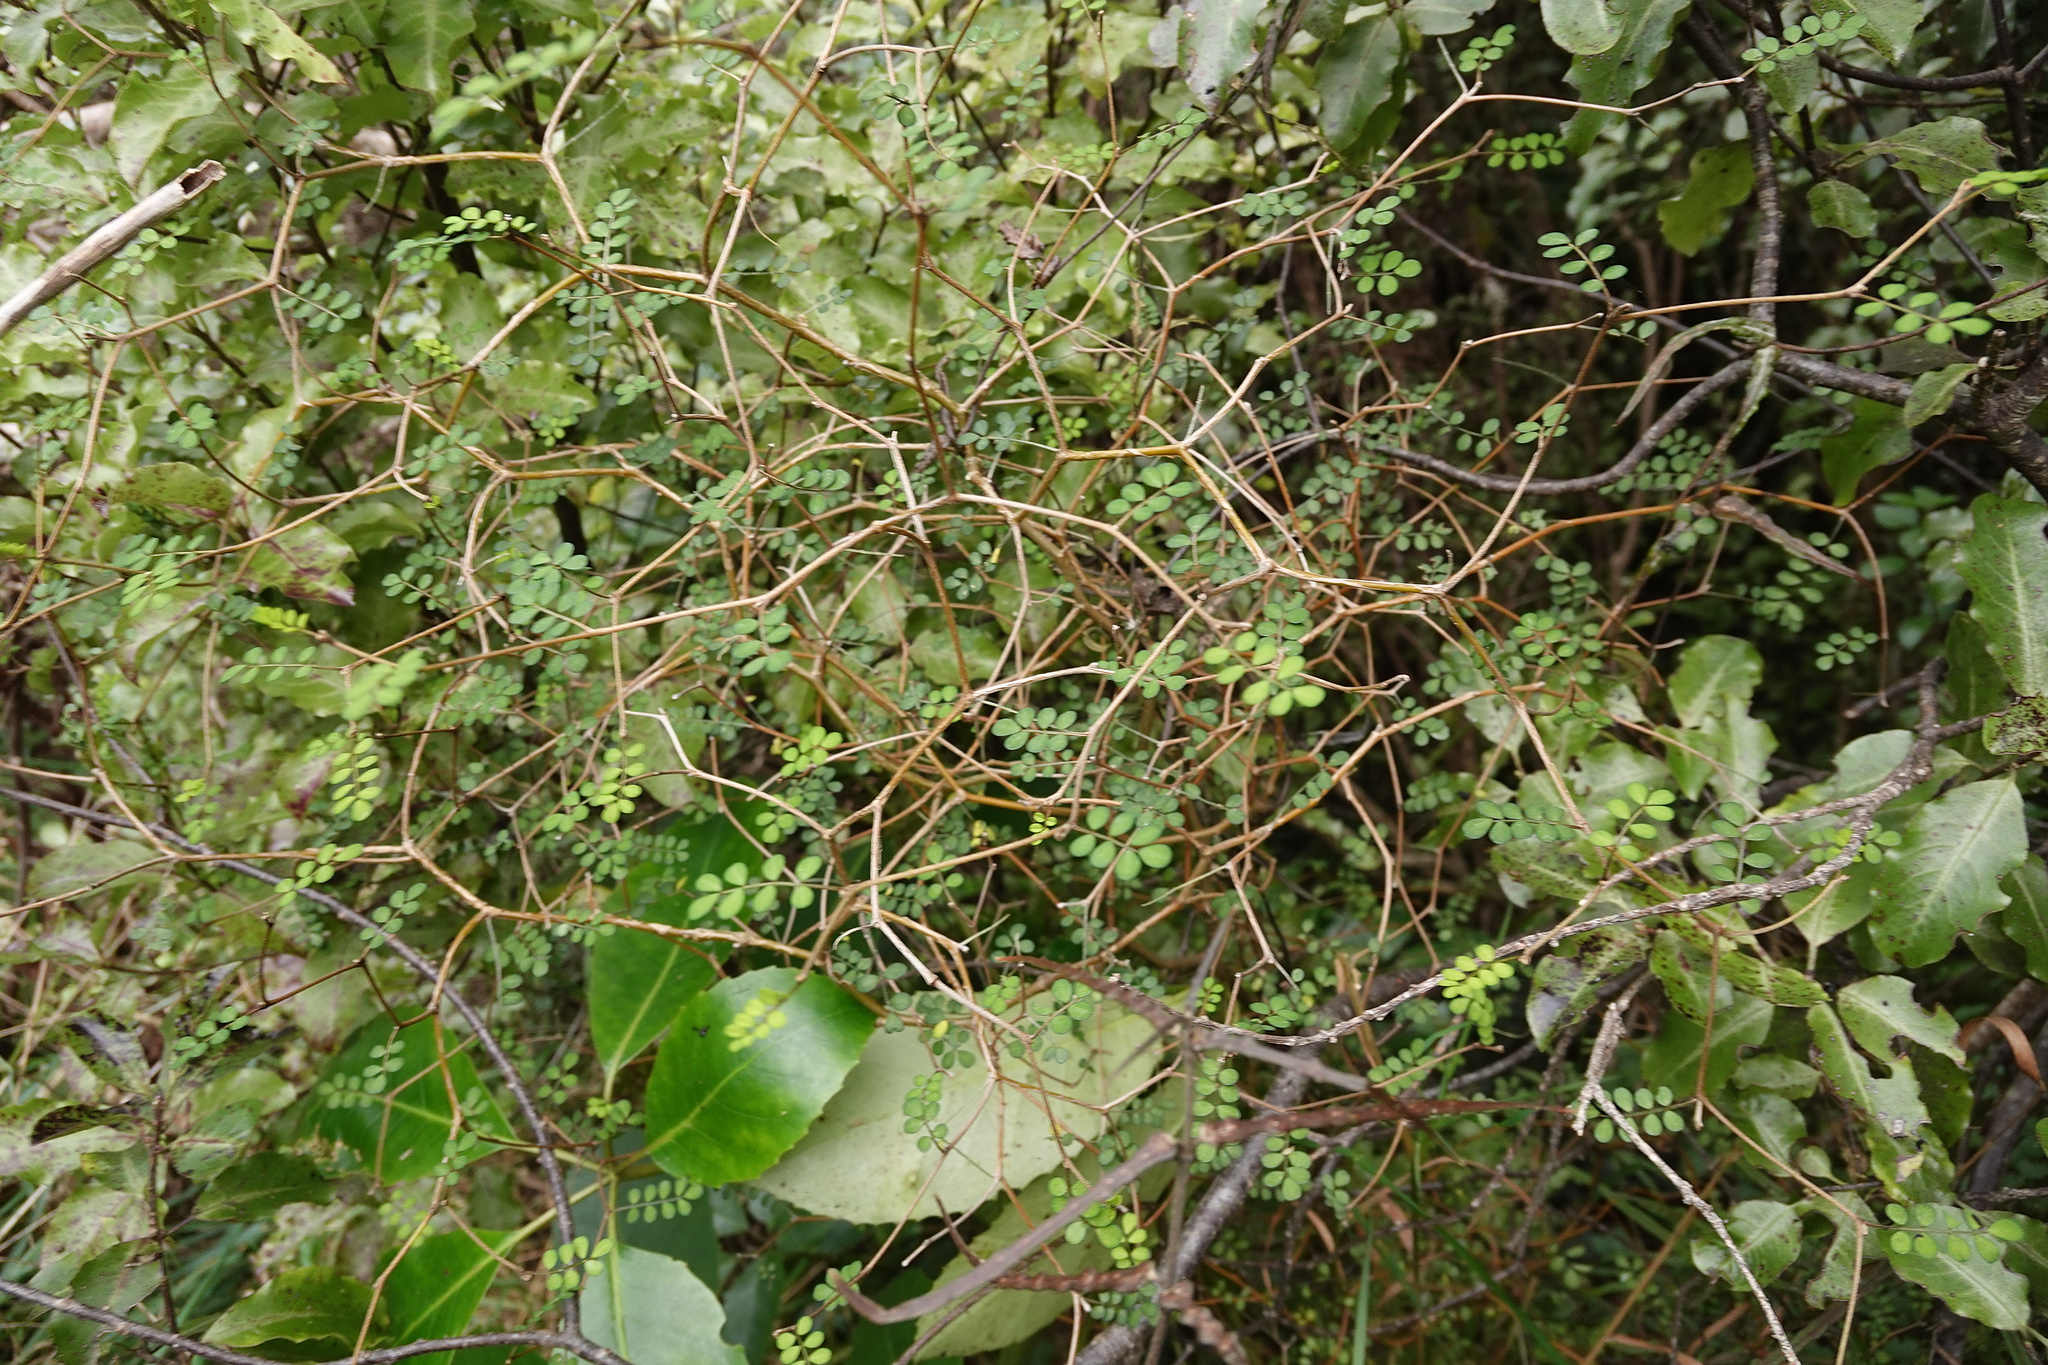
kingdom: Plantae
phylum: Tracheophyta
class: Magnoliopsida
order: Fabales
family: Fabaceae
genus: Sophora
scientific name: Sophora microphylla
